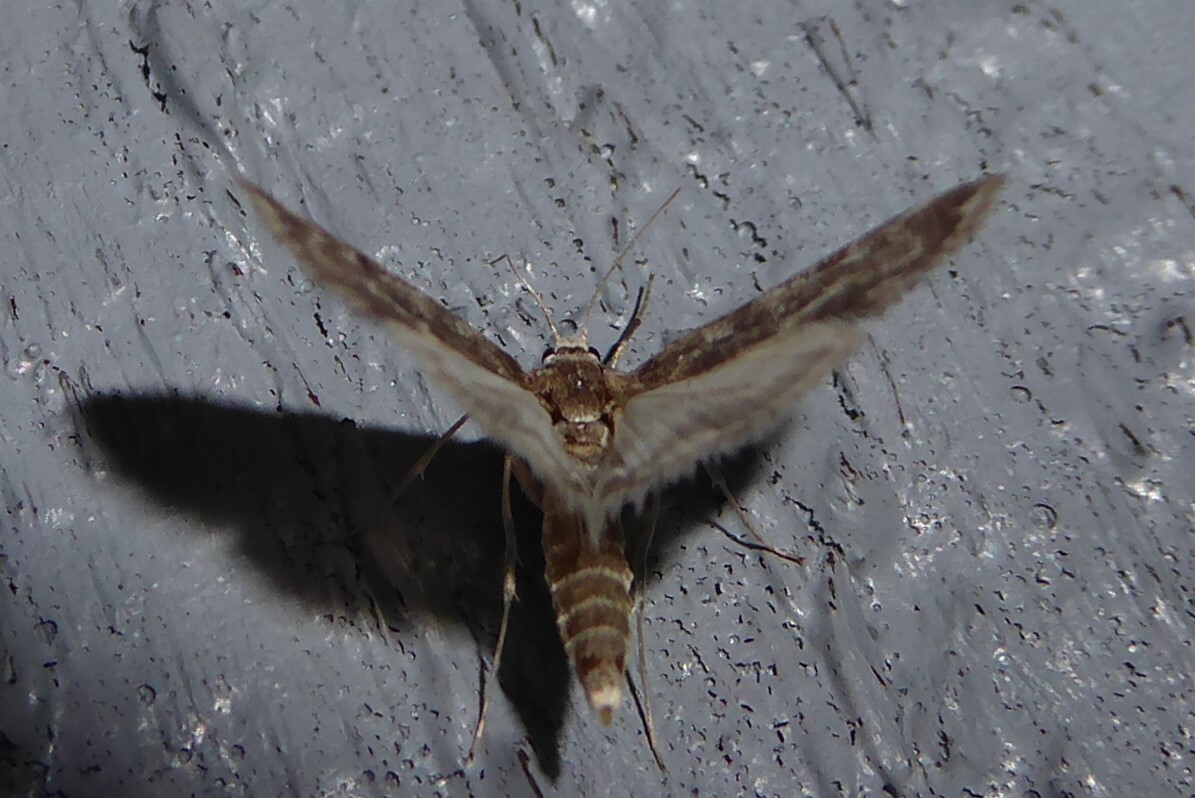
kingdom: Animalia
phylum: Arthropoda
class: Insecta
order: Lepidoptera
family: Crambidae
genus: Hygraula
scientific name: Hygraula nitens
